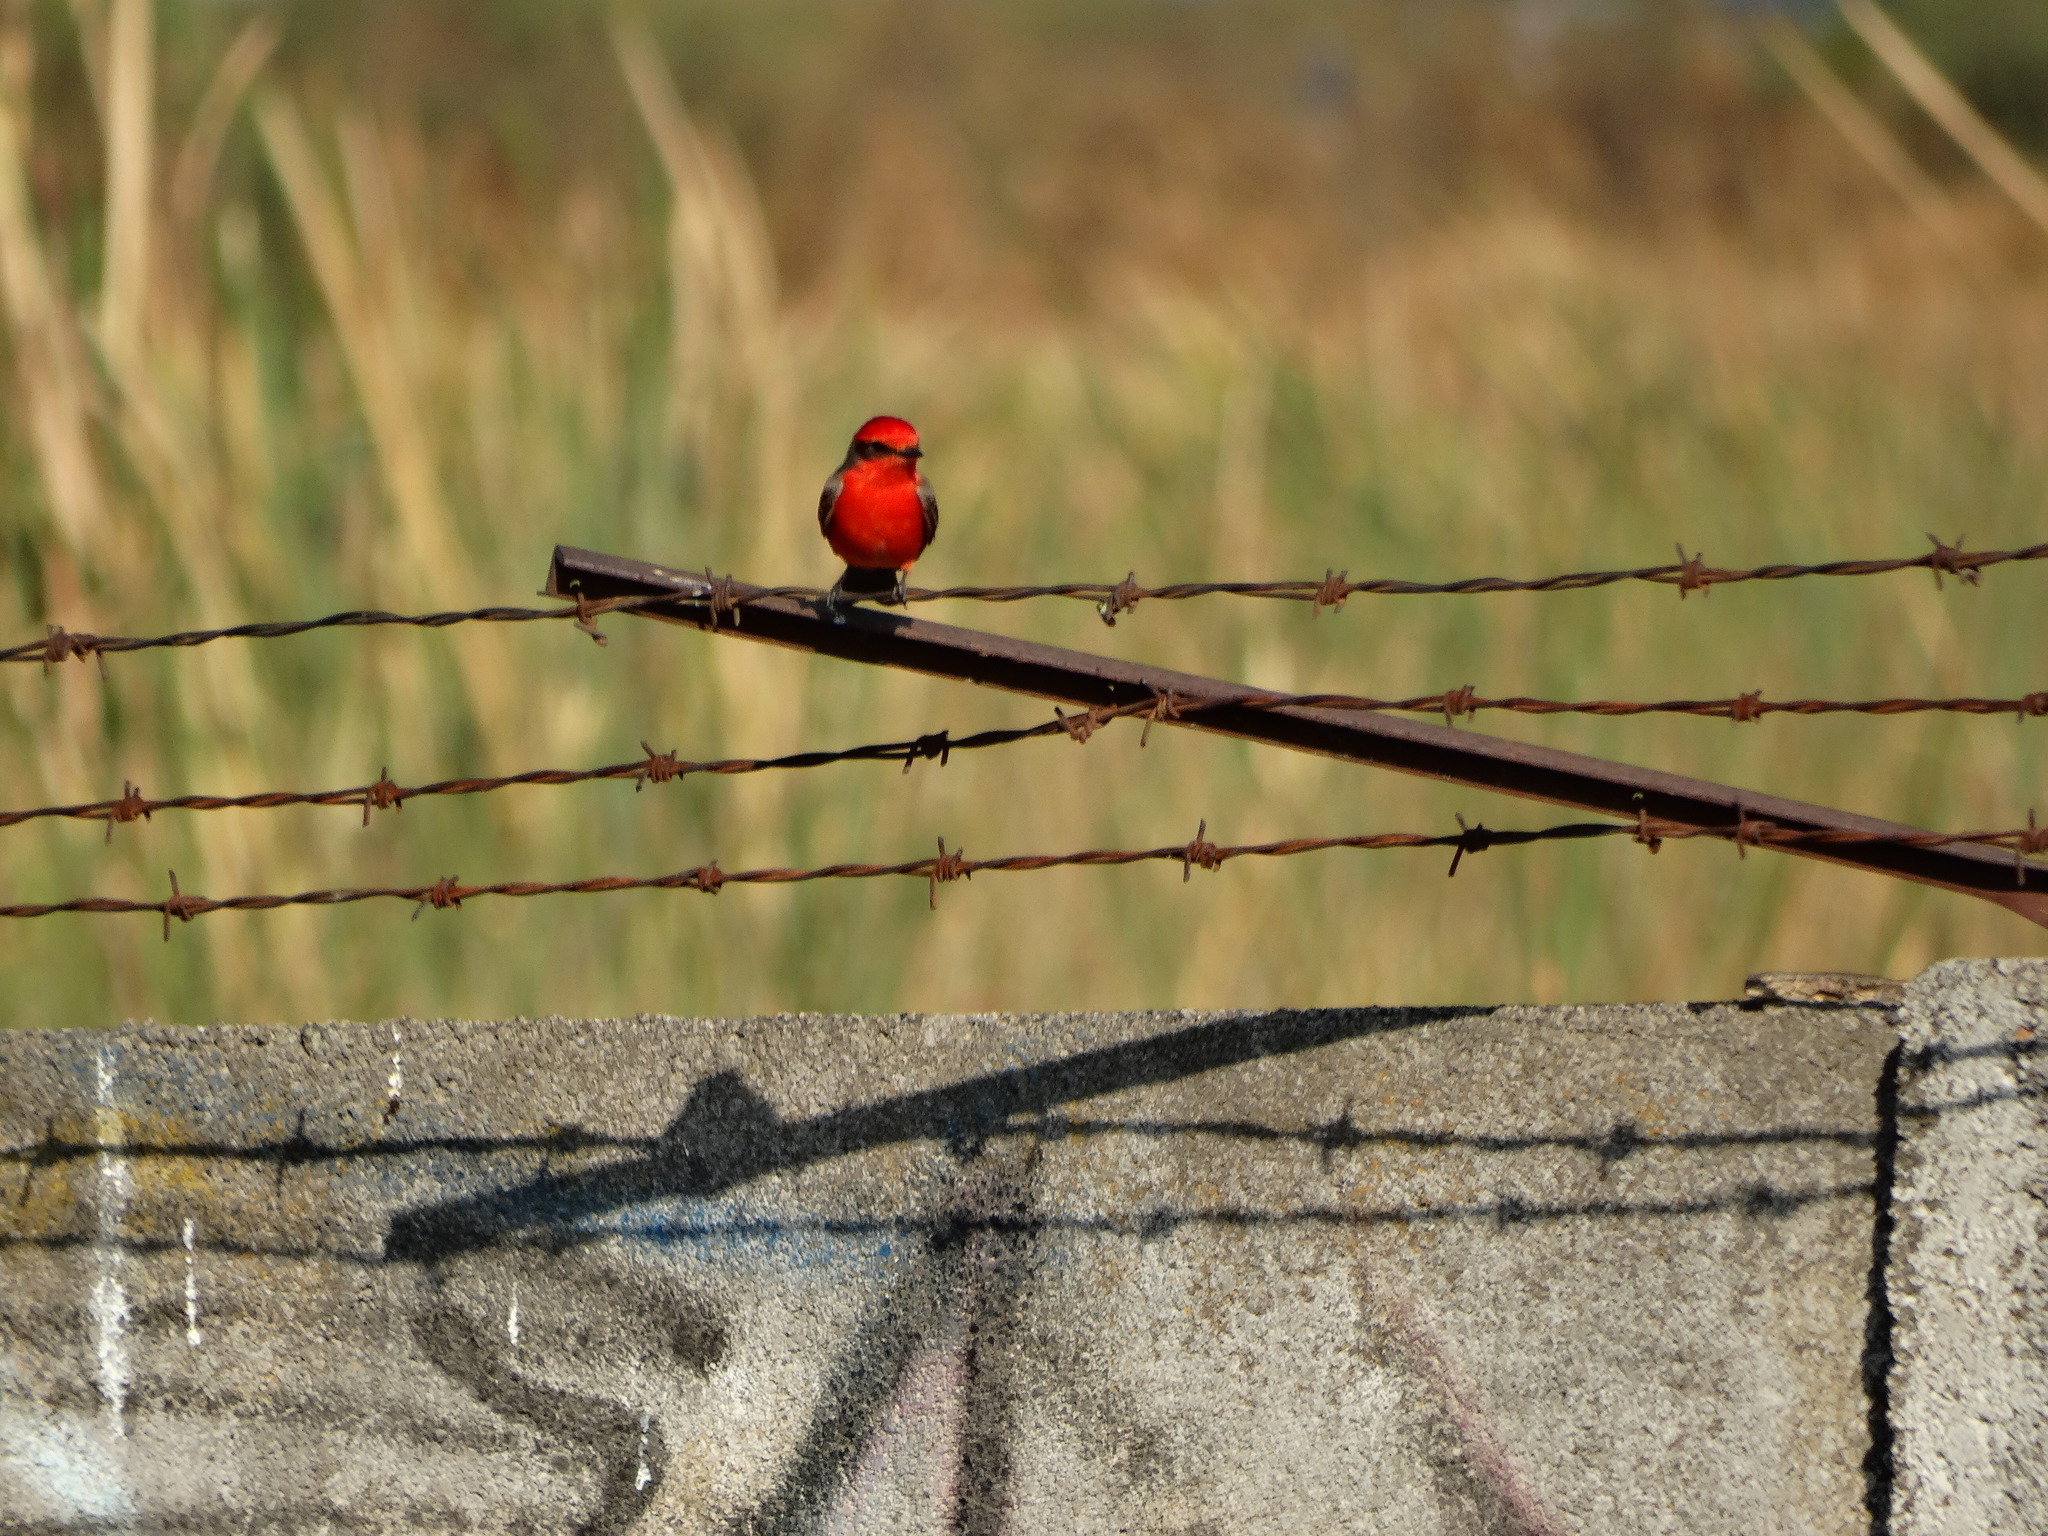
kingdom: Animalia
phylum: Chordata
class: Aves
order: Passeriformes
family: Tyrannidae
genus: Pyrocephalus
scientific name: Pyrocephalus rubinus
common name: Vermilion flycatcher
